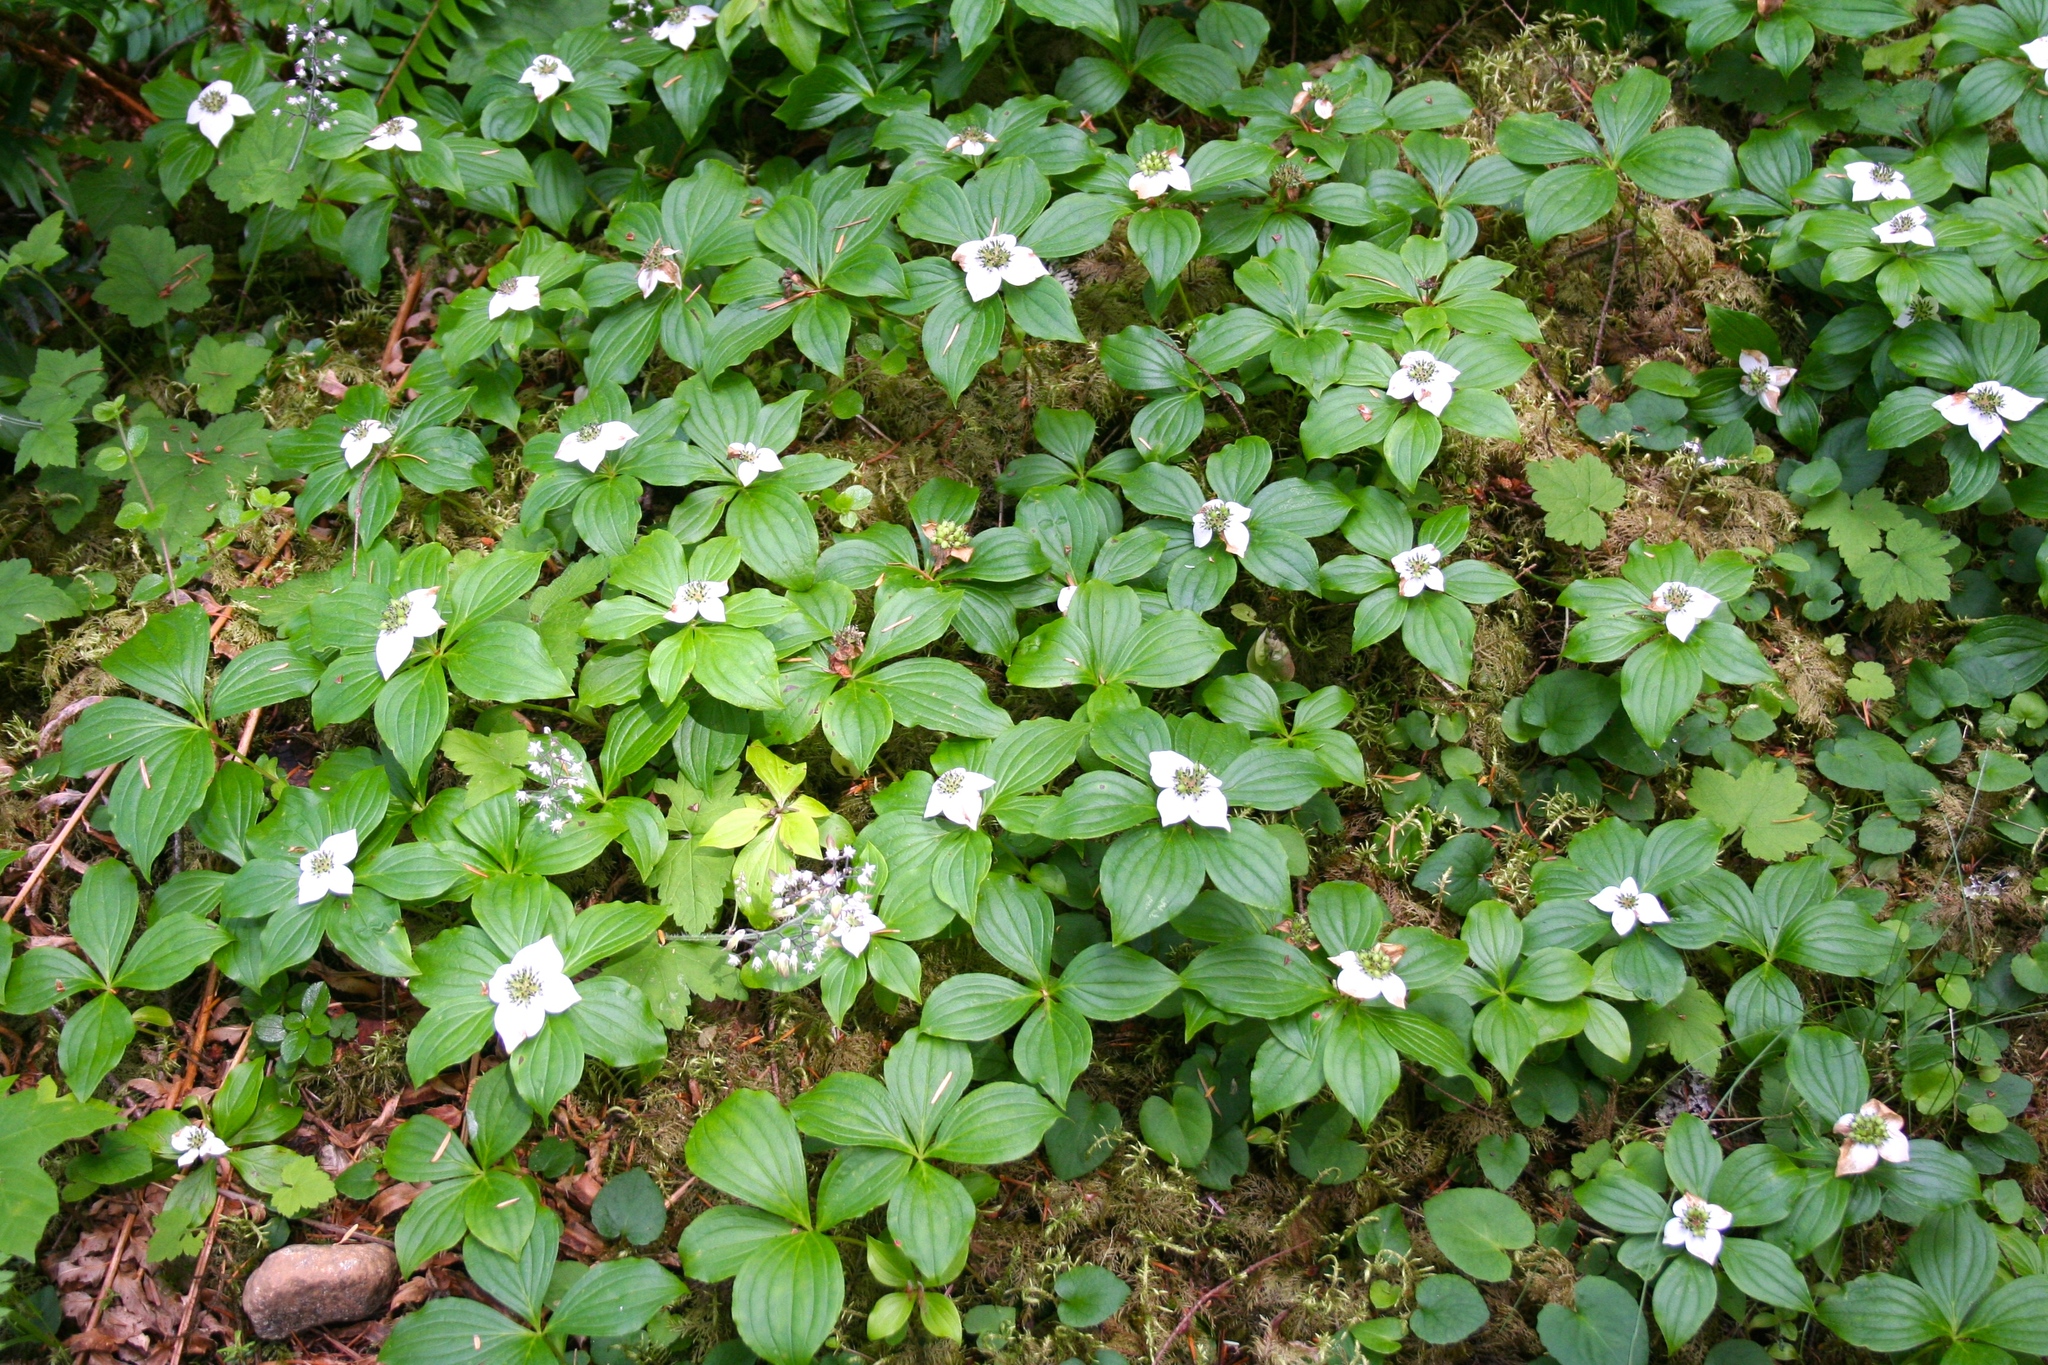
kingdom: Plantae
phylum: Tracheophyta
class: Magnoliopsida
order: Cornales
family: Cornaceae
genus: Cornus
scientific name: Cornus unalaschkensis
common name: Alaska bunchberry
